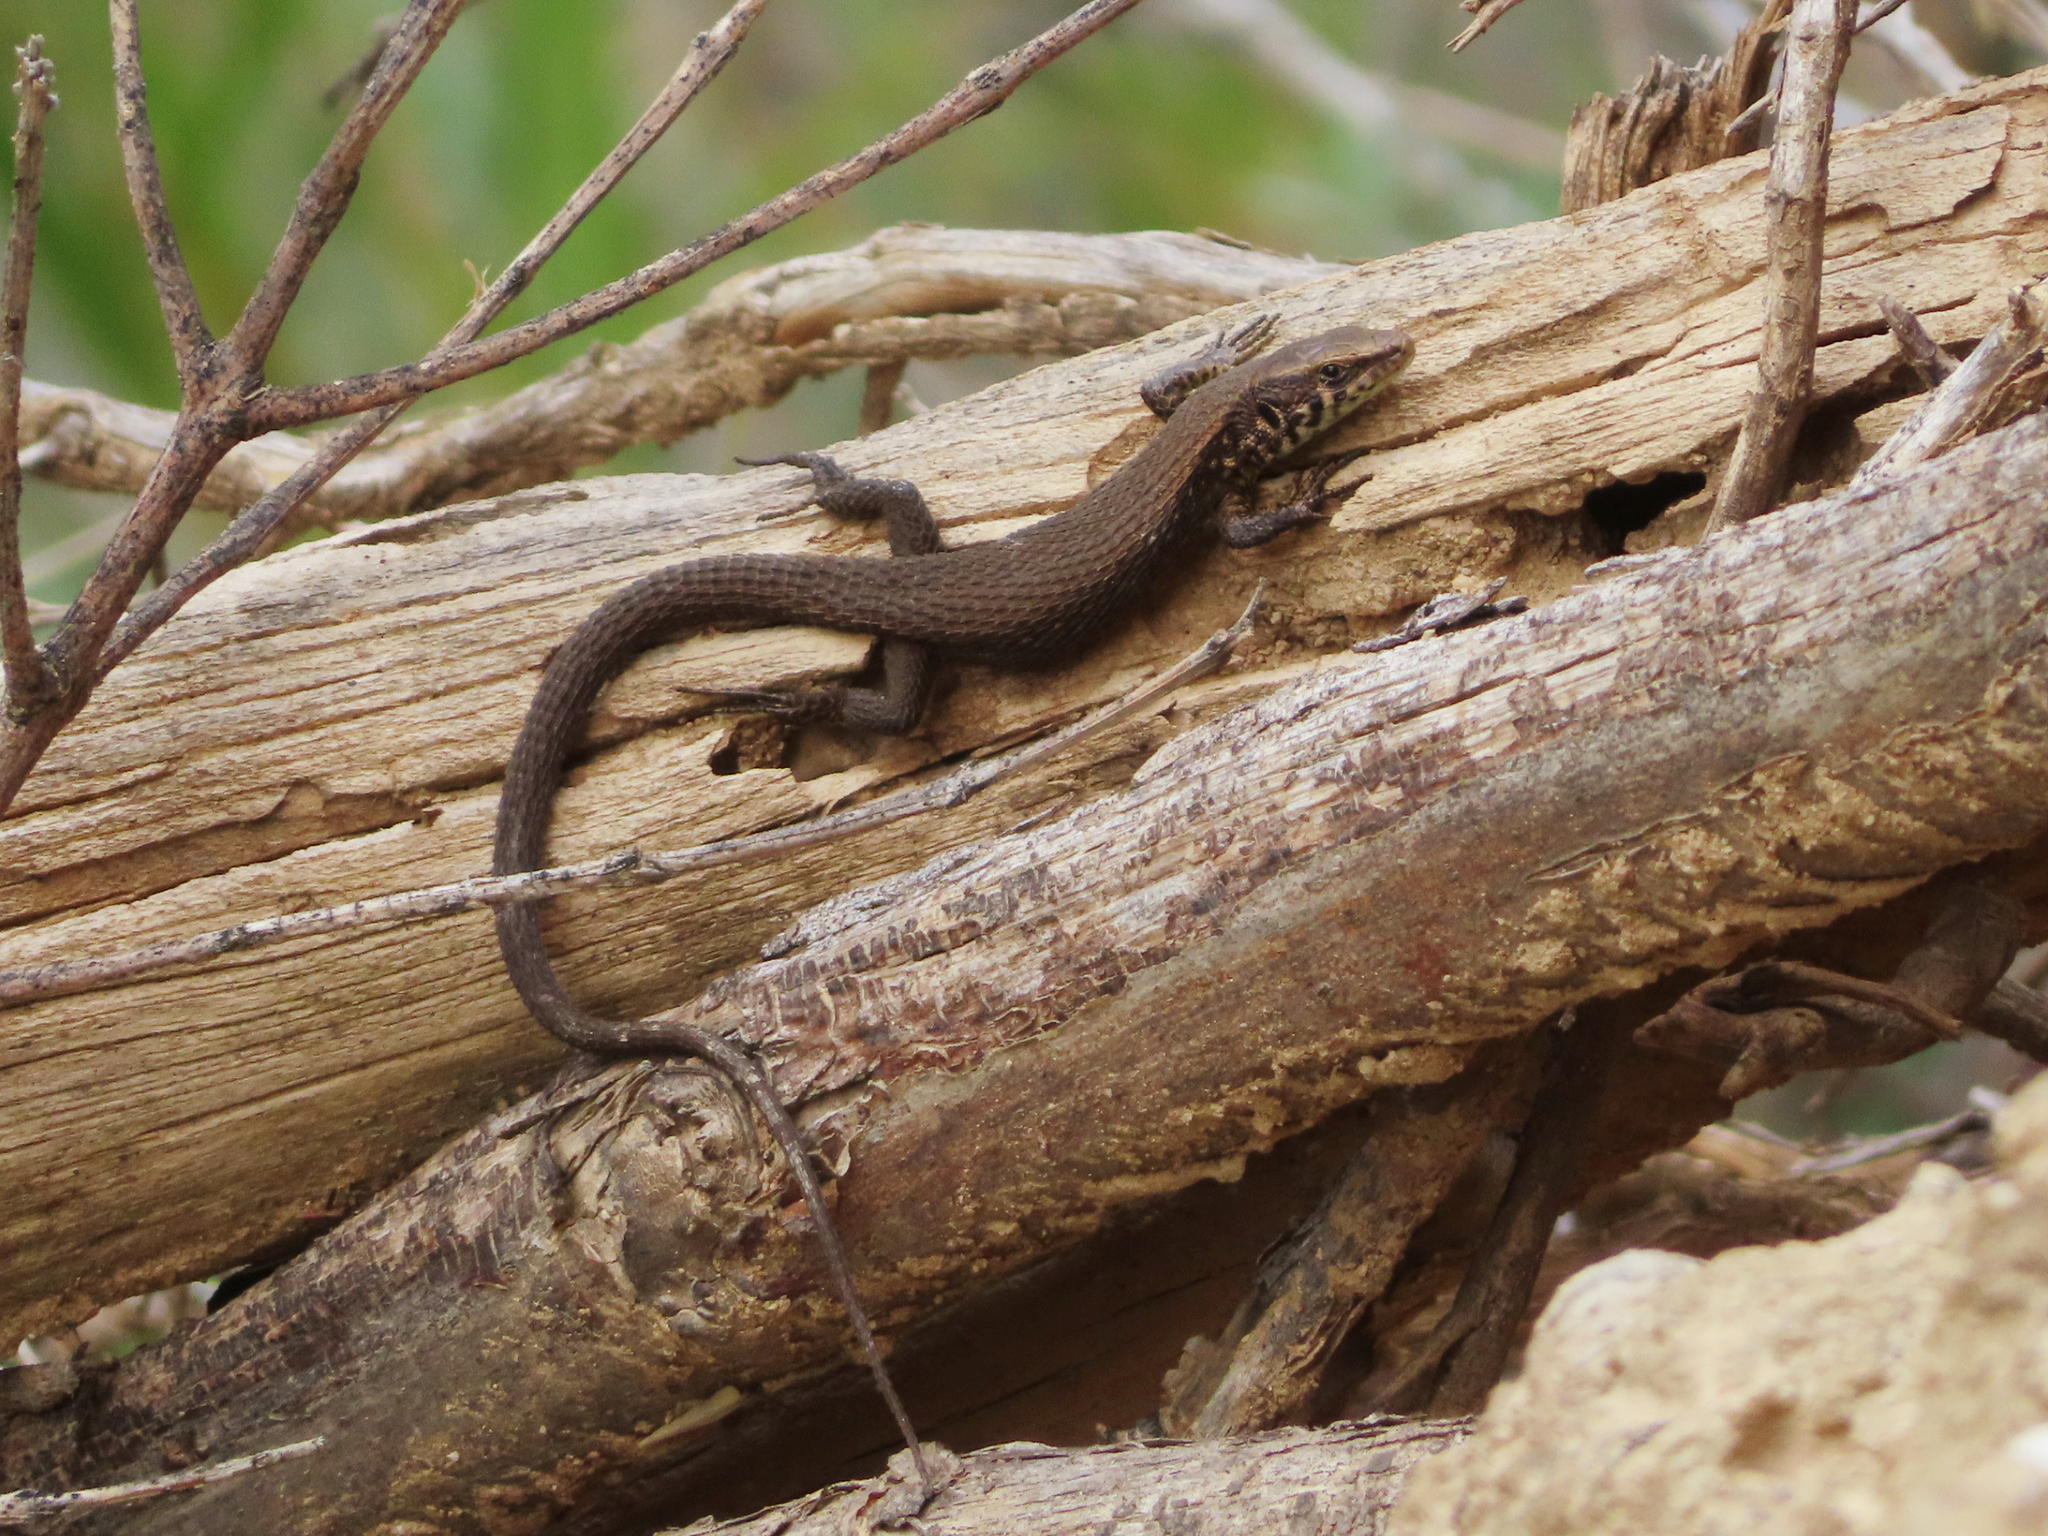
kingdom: Animalia
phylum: Chordata
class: Squamata
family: Lacertidae
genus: Algyroides
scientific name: Algyroides moreoticus
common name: Greek algyroides
